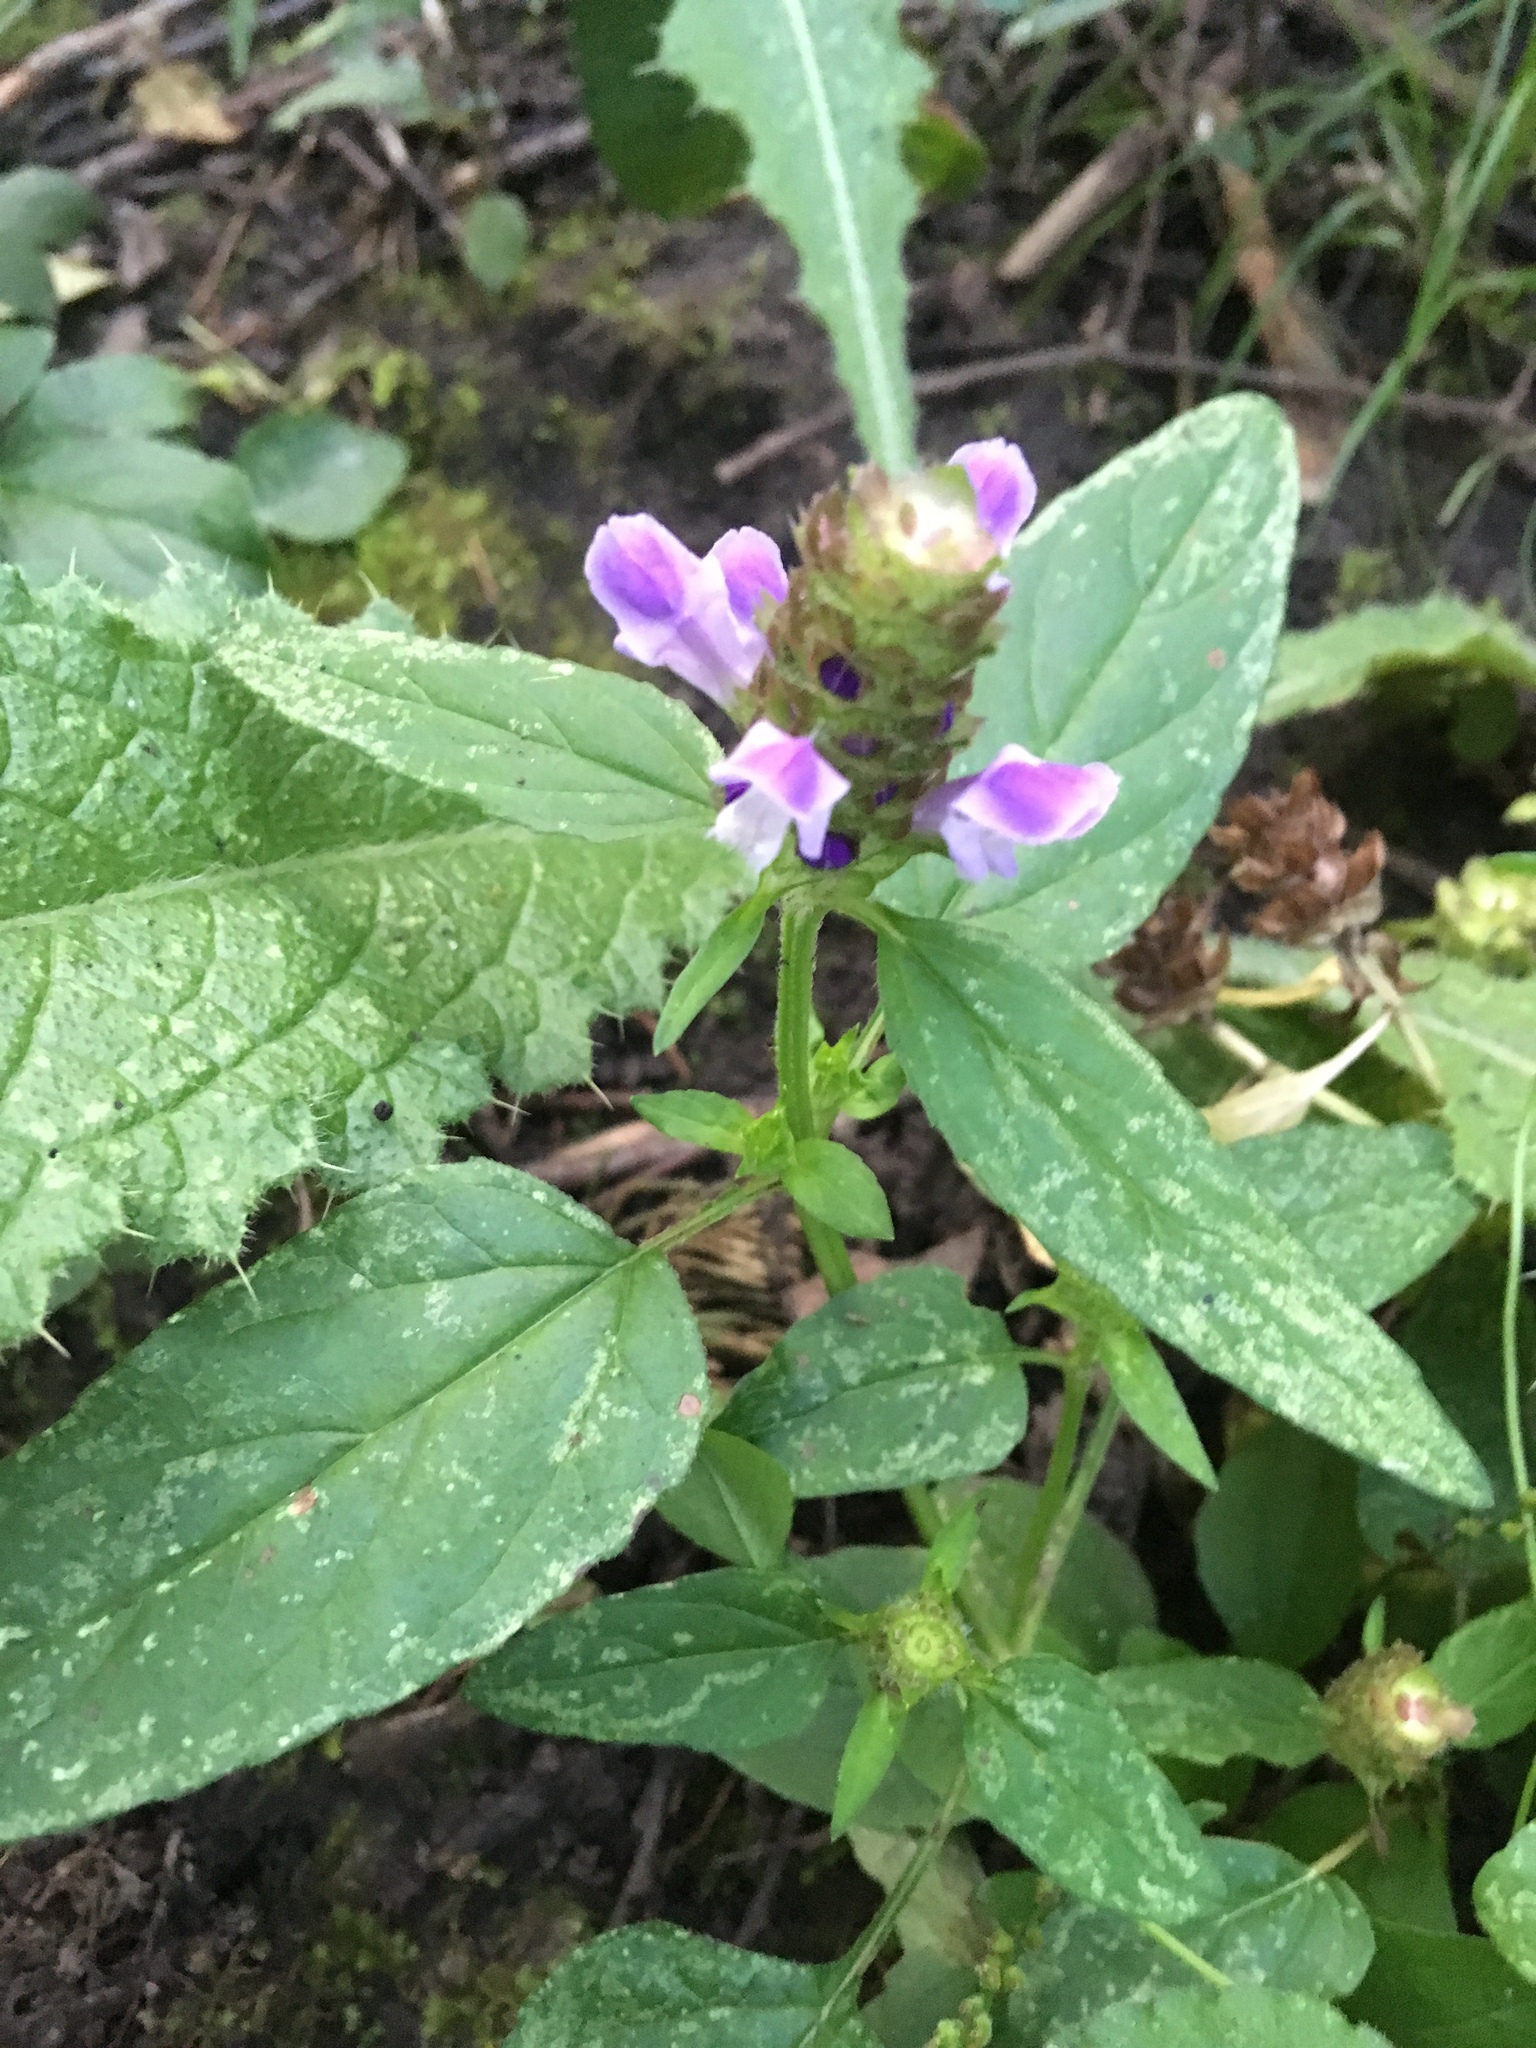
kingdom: Plantae
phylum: Tracheophyta
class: Magnoliopsida
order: Lamiales
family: Lamiaceae
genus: Prunella
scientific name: Prunella vulgaris
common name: Heal-all
